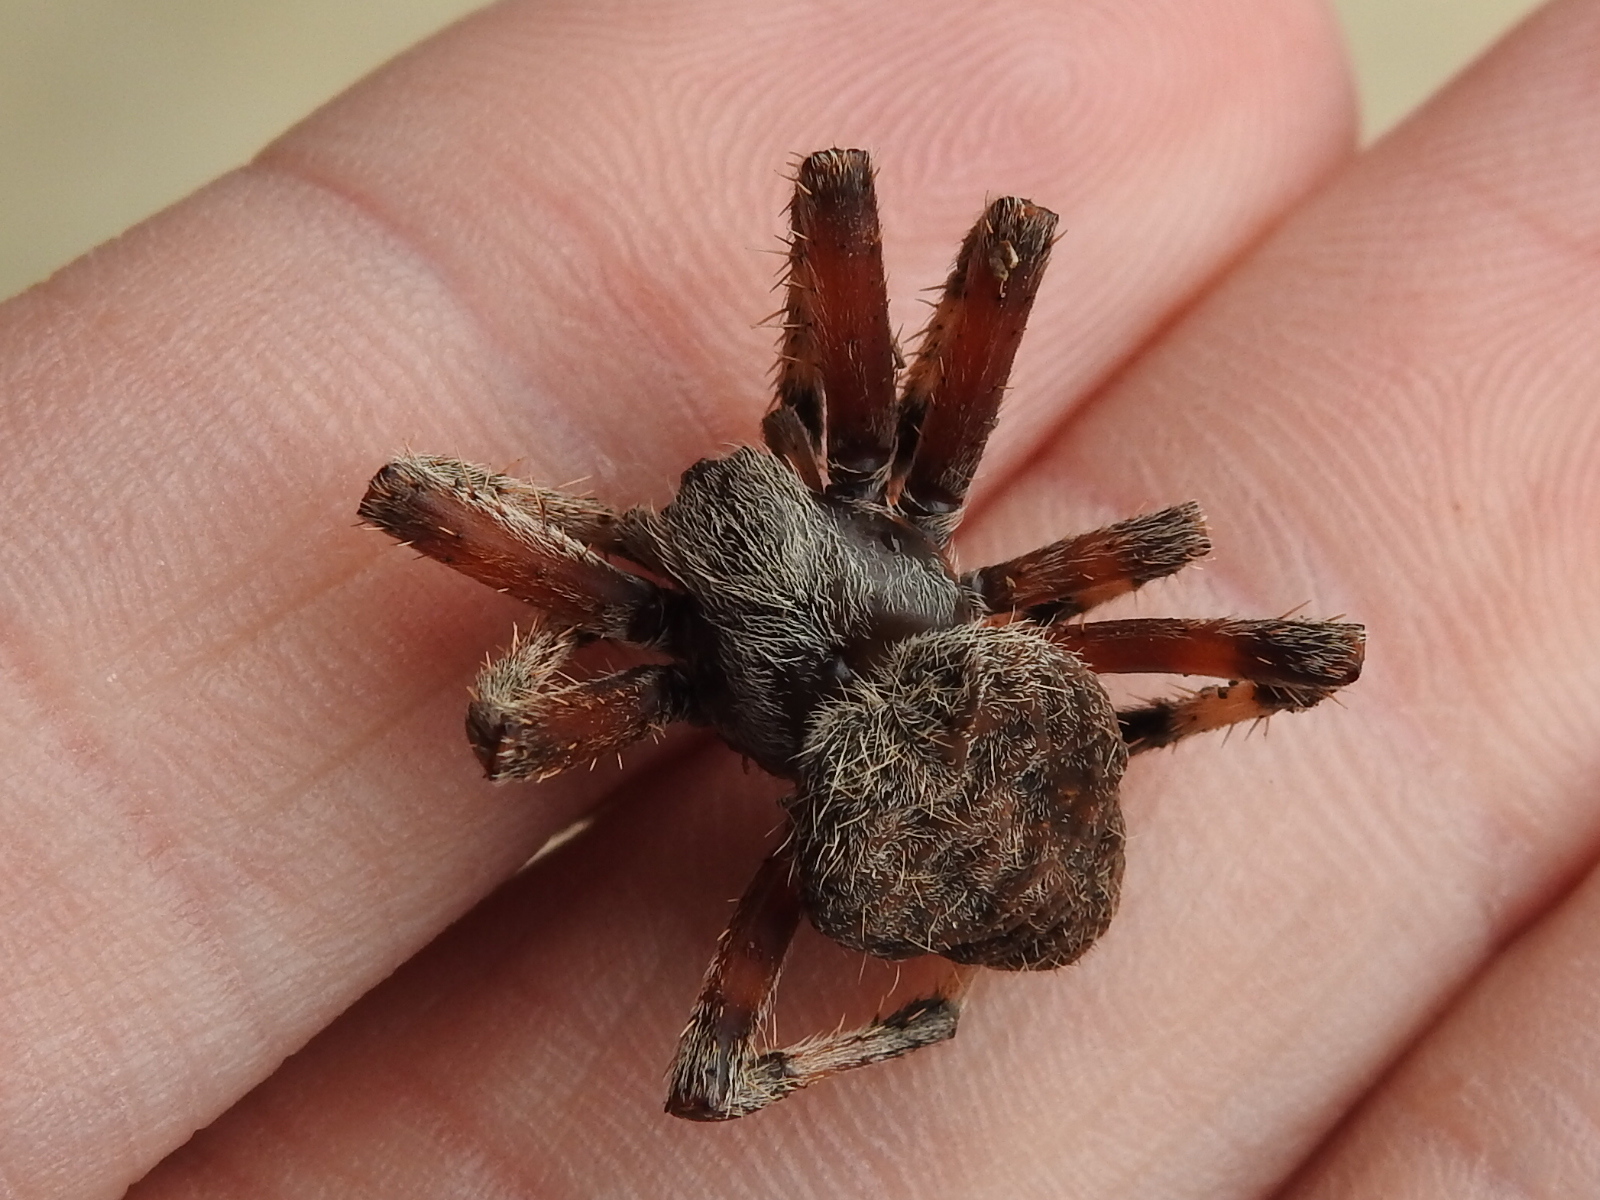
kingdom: Animalia
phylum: Arthropoda
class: Arachnida
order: Araneae
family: Araneidae
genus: Neoscona
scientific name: Neoscona crucifera
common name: Spotted orbweaver
